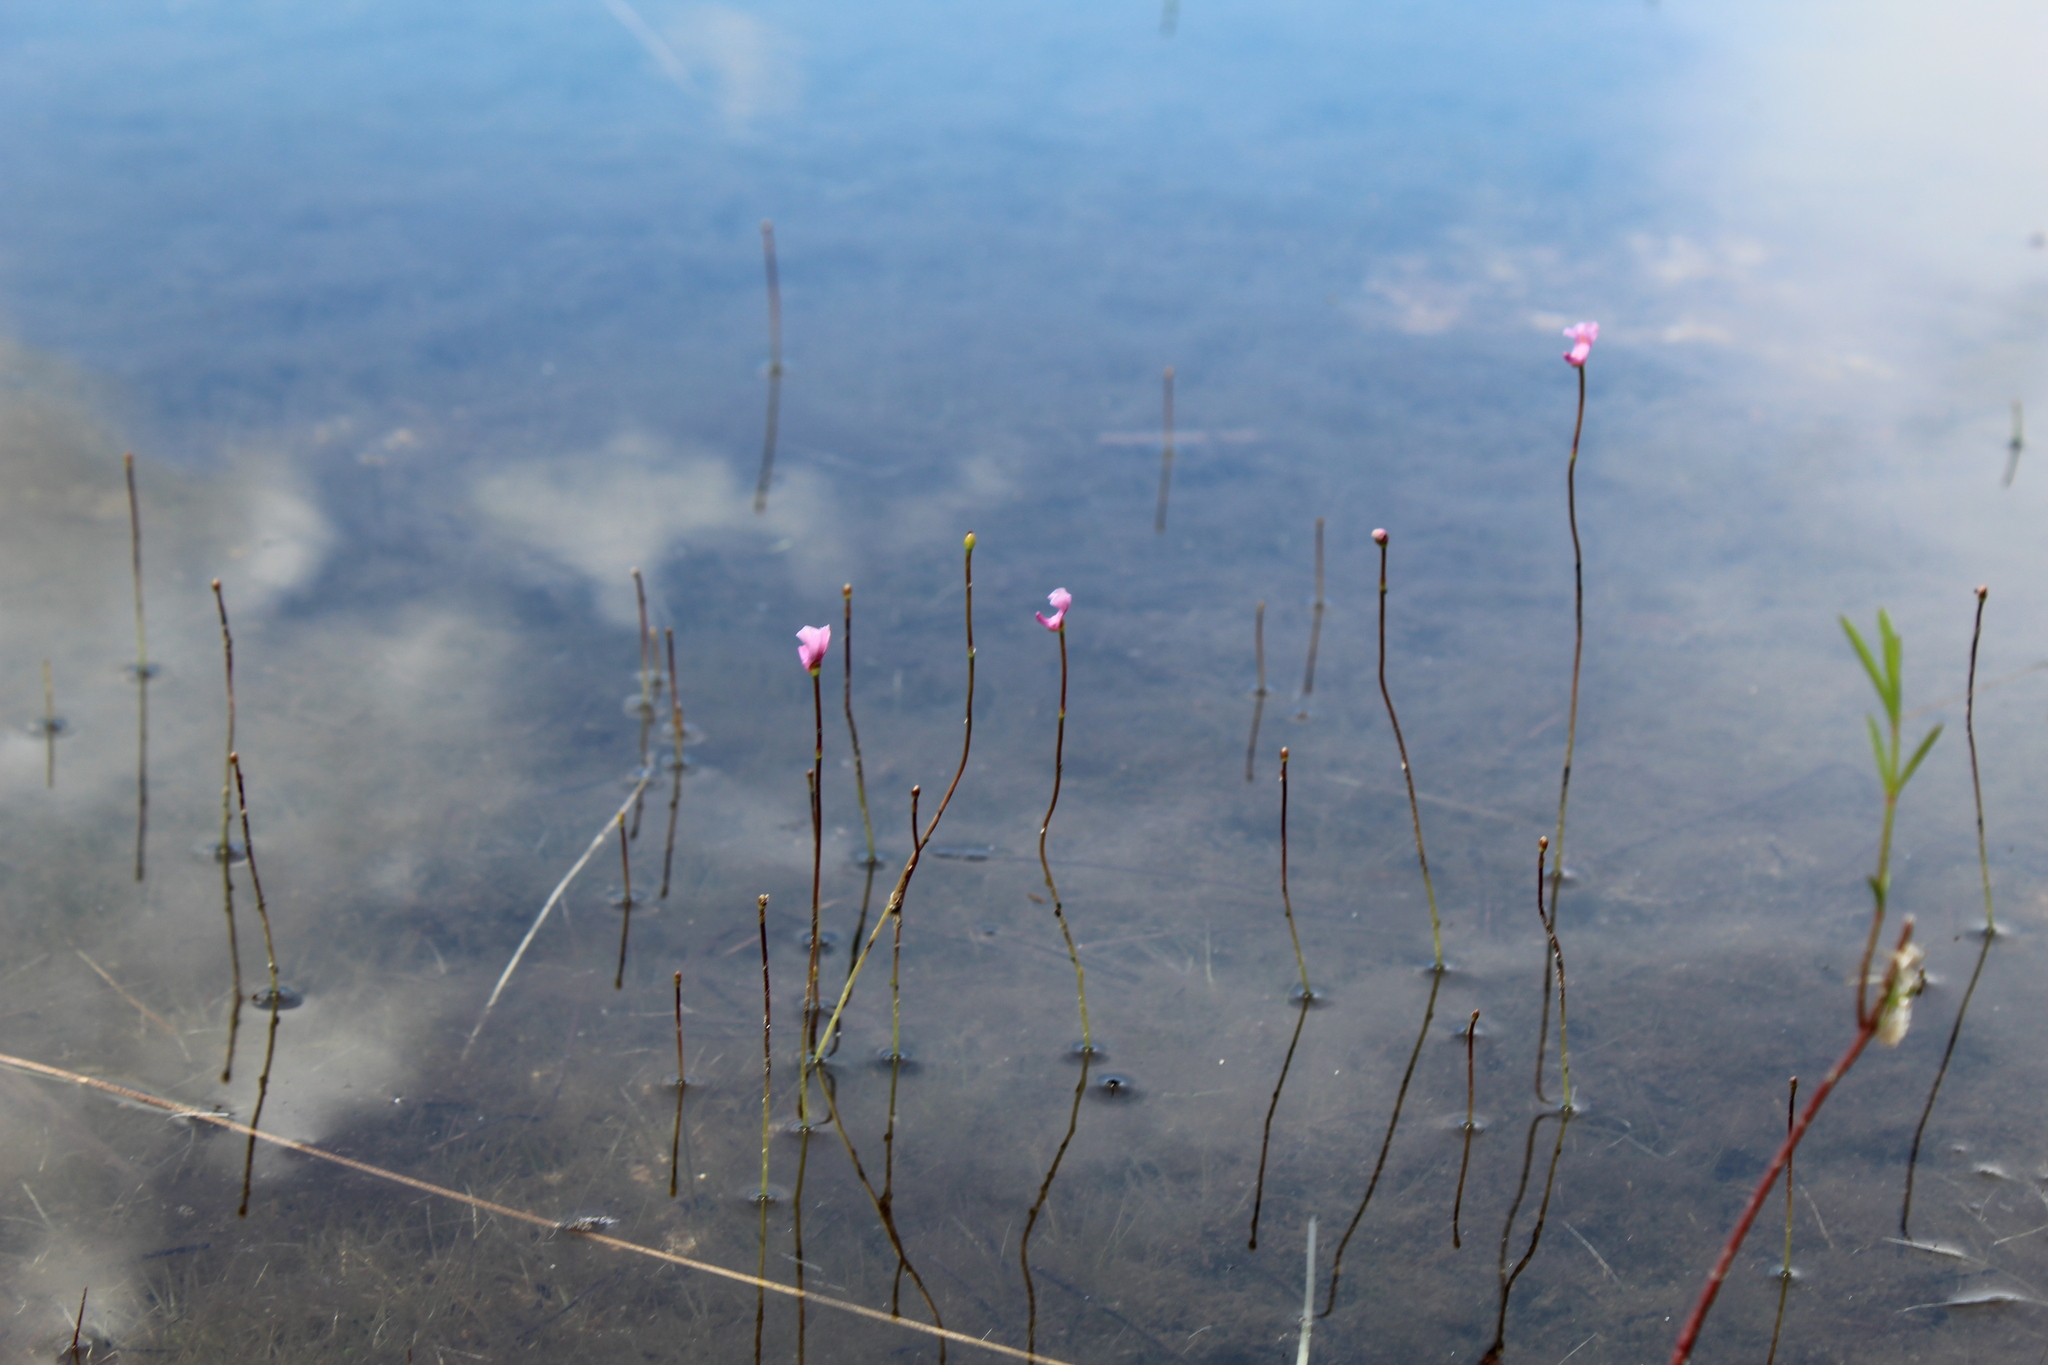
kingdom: Plantae
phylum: Tracheophyta
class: Magnoliopsida
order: Lamiales
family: Lentibulariaceae
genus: Utricularia
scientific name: Utricularia resupinata
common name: Northeastern bladderwort
